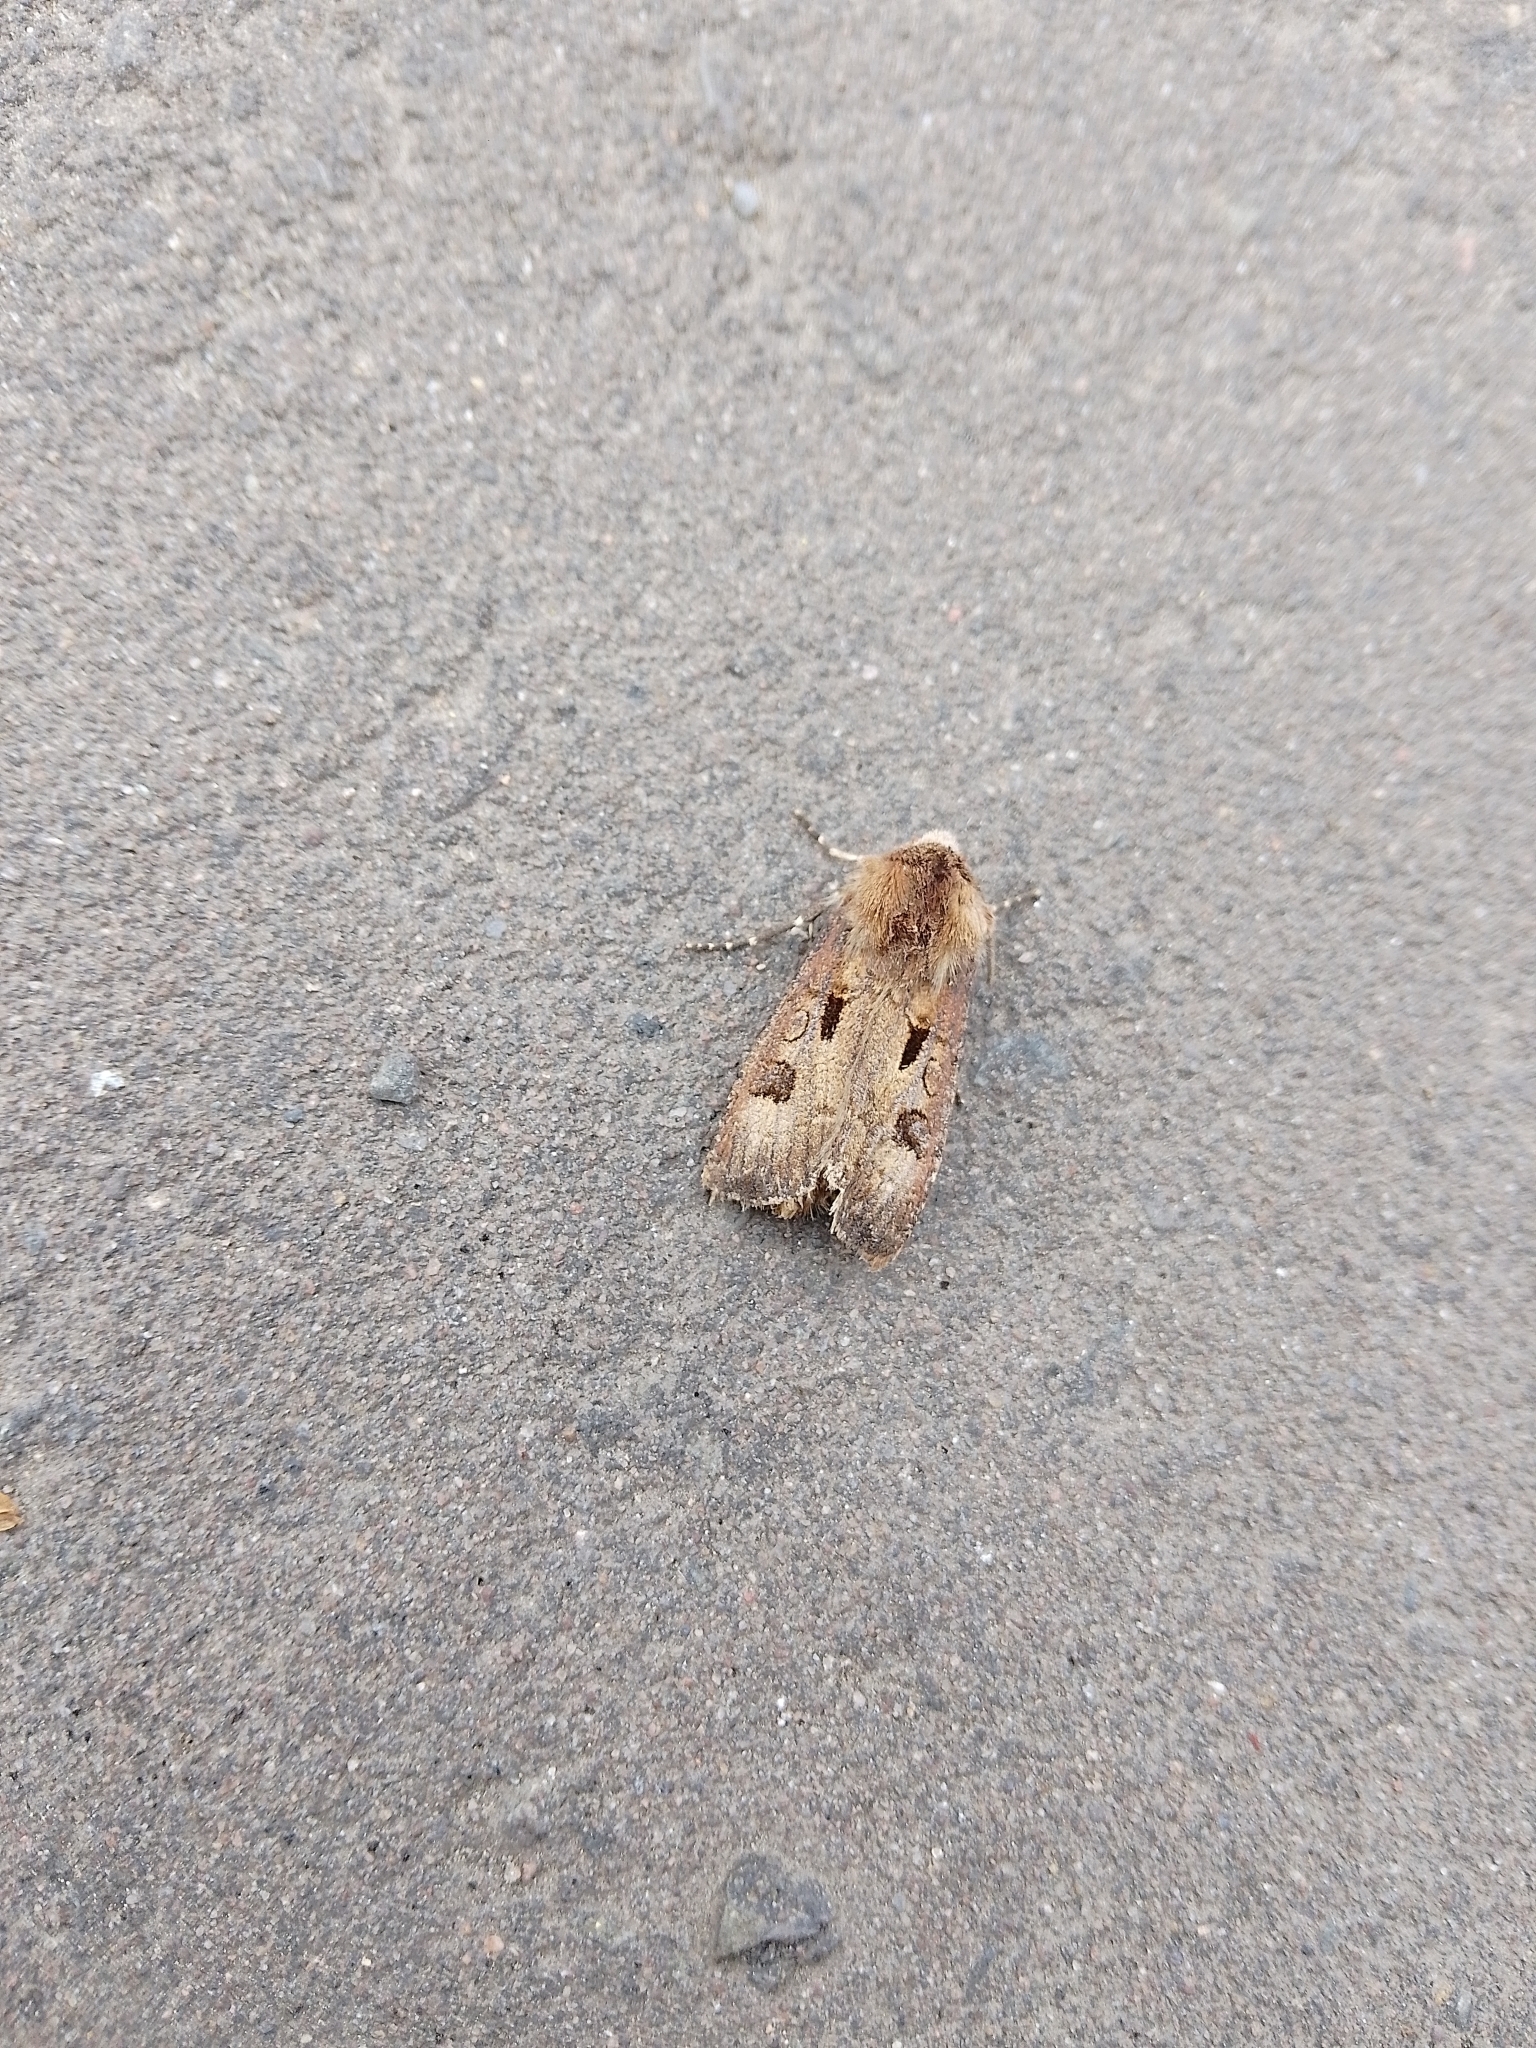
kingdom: Animalia
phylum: Arthropoda
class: Insecta
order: Lepidoptera
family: Noctuidae
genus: Agrotis
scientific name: Agrotis exclamationis
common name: Heart and dart
